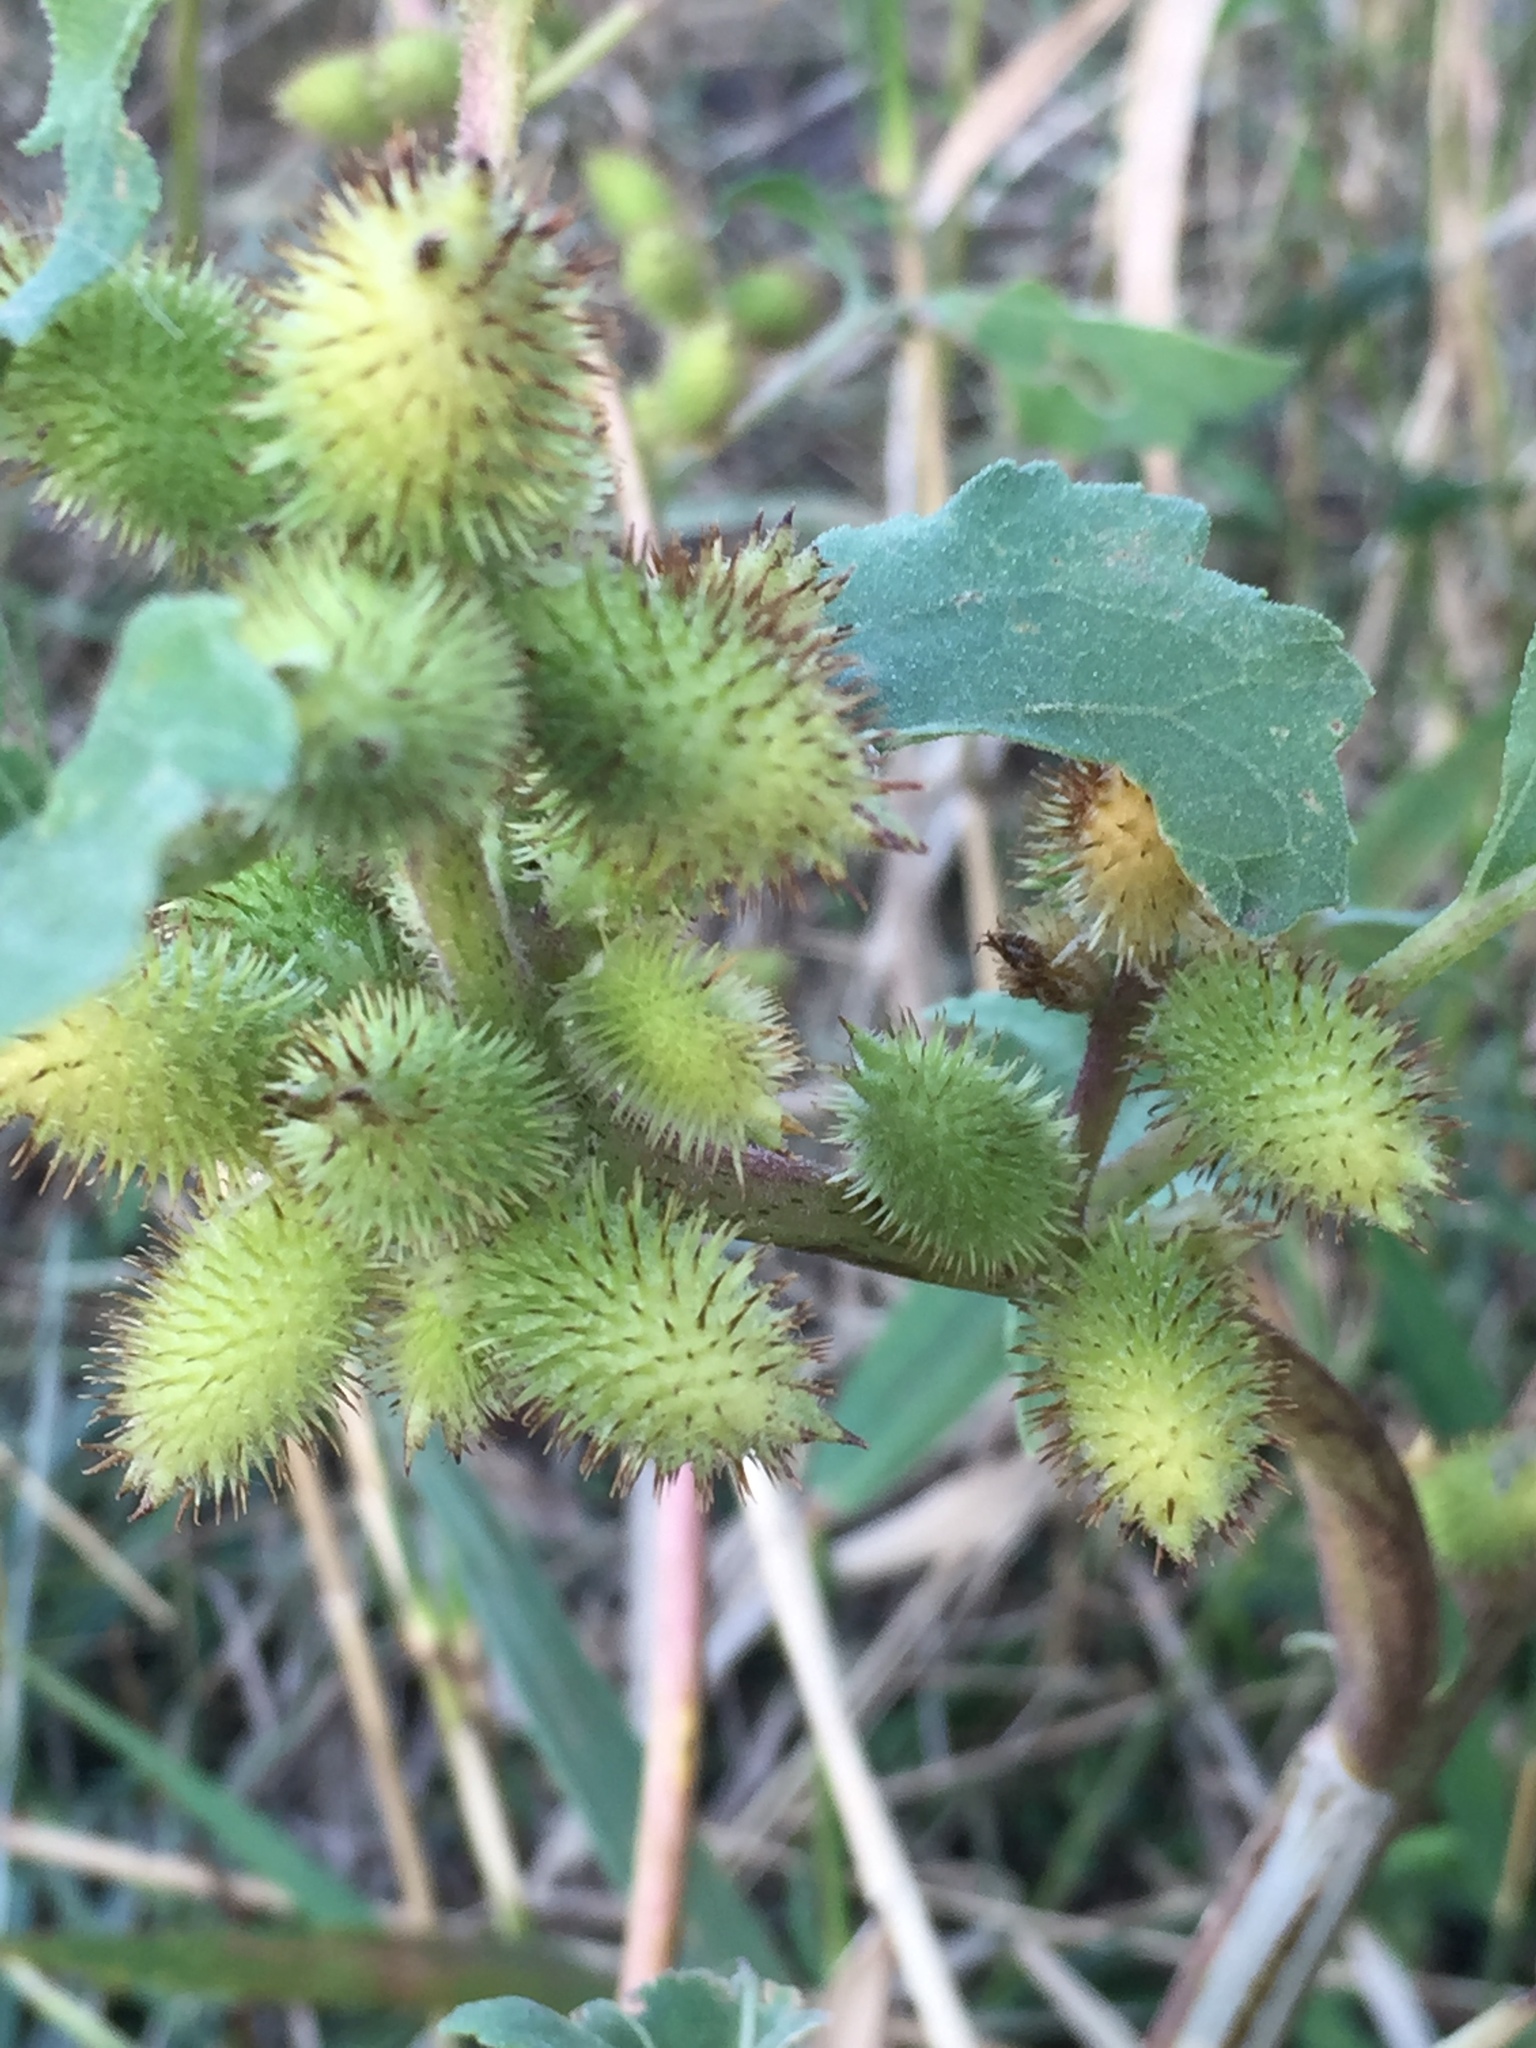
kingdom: Plantae
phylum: Tracheophyta
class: Magnoliopsida
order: Asterales
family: Asteraceae
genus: Xanthium
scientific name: Xanthium orientale
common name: Californian burr
